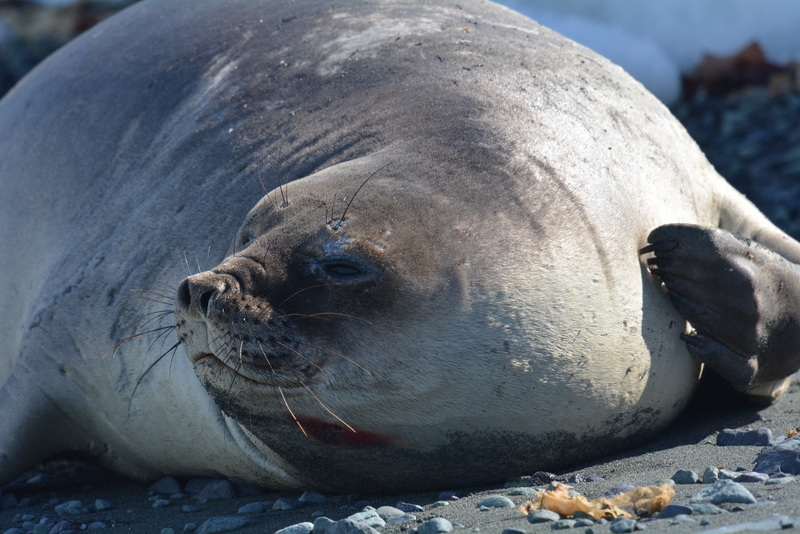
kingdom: Animalia
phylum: Chordata
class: Mammalia
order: Carnivora
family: Phocidae
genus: Mirounga
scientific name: Mirounga leonina
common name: Southern elephant seal
